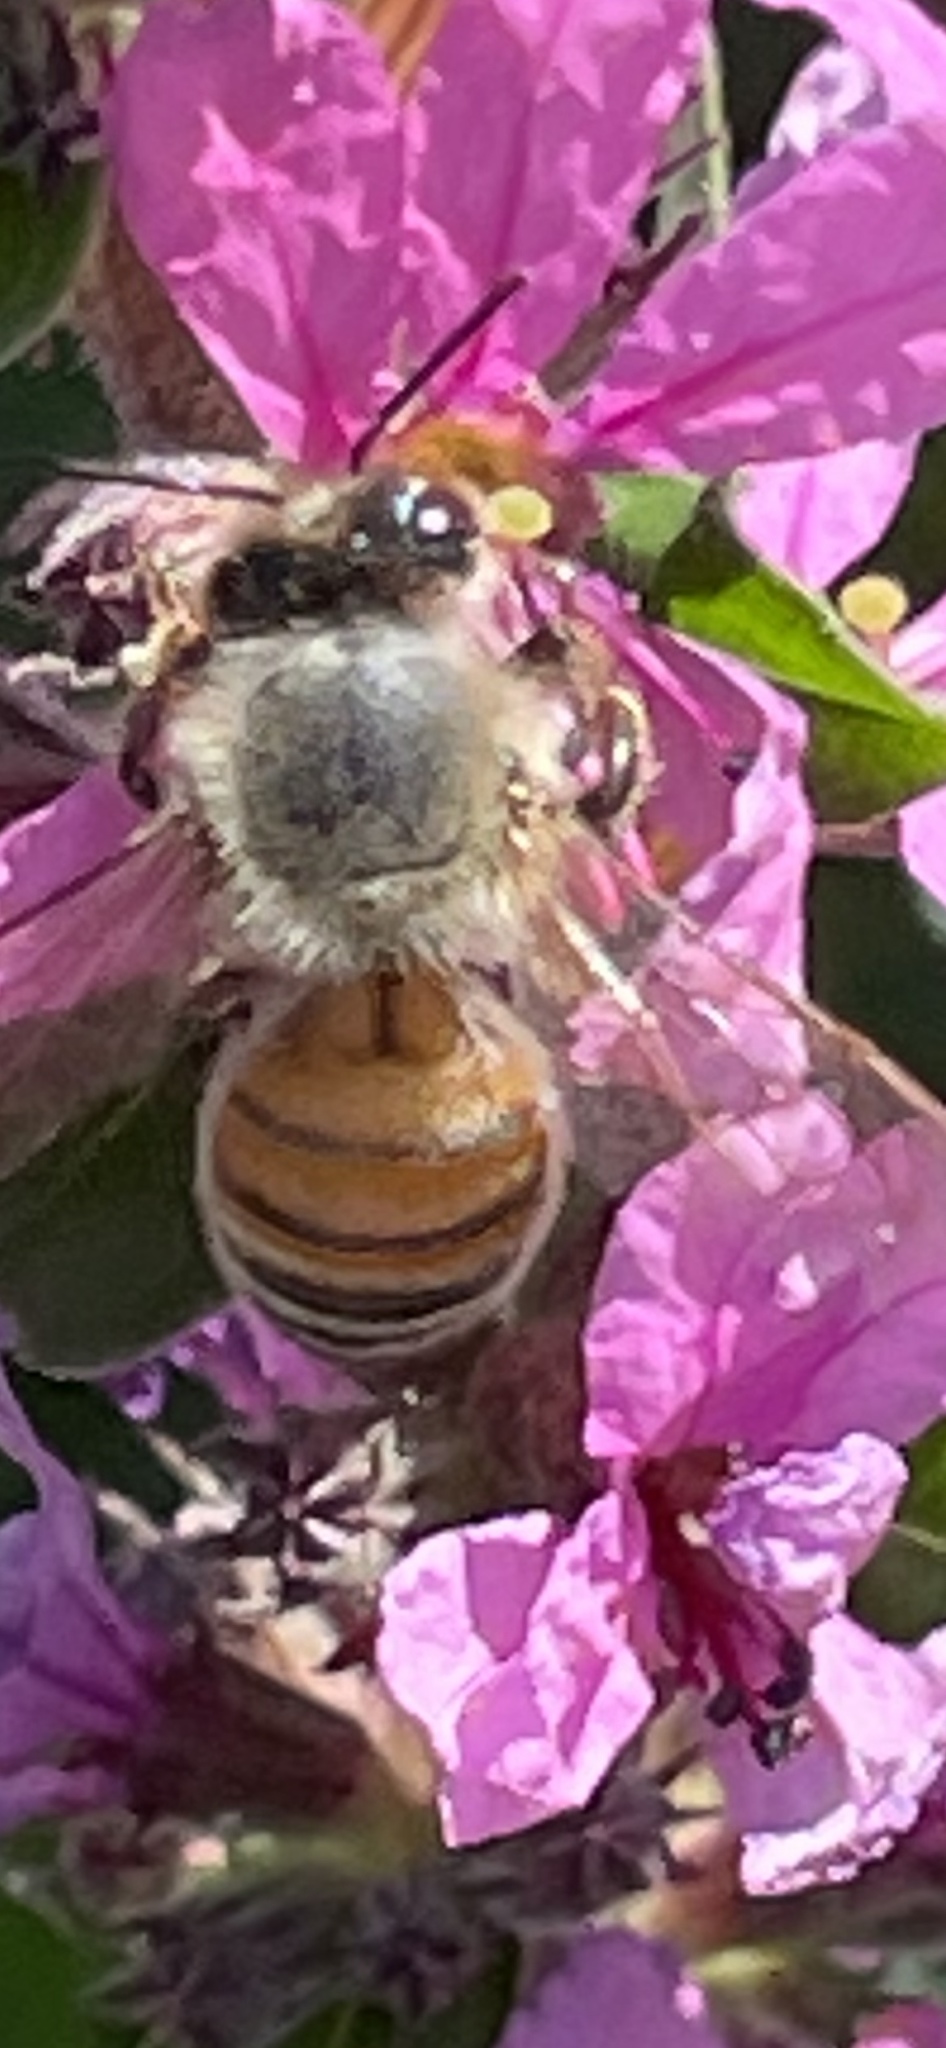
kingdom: Animalia
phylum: Arthropoda
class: Insecta
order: Hymenoptera
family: Apidae
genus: Apis
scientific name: Apis mellifera
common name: Honey bee
